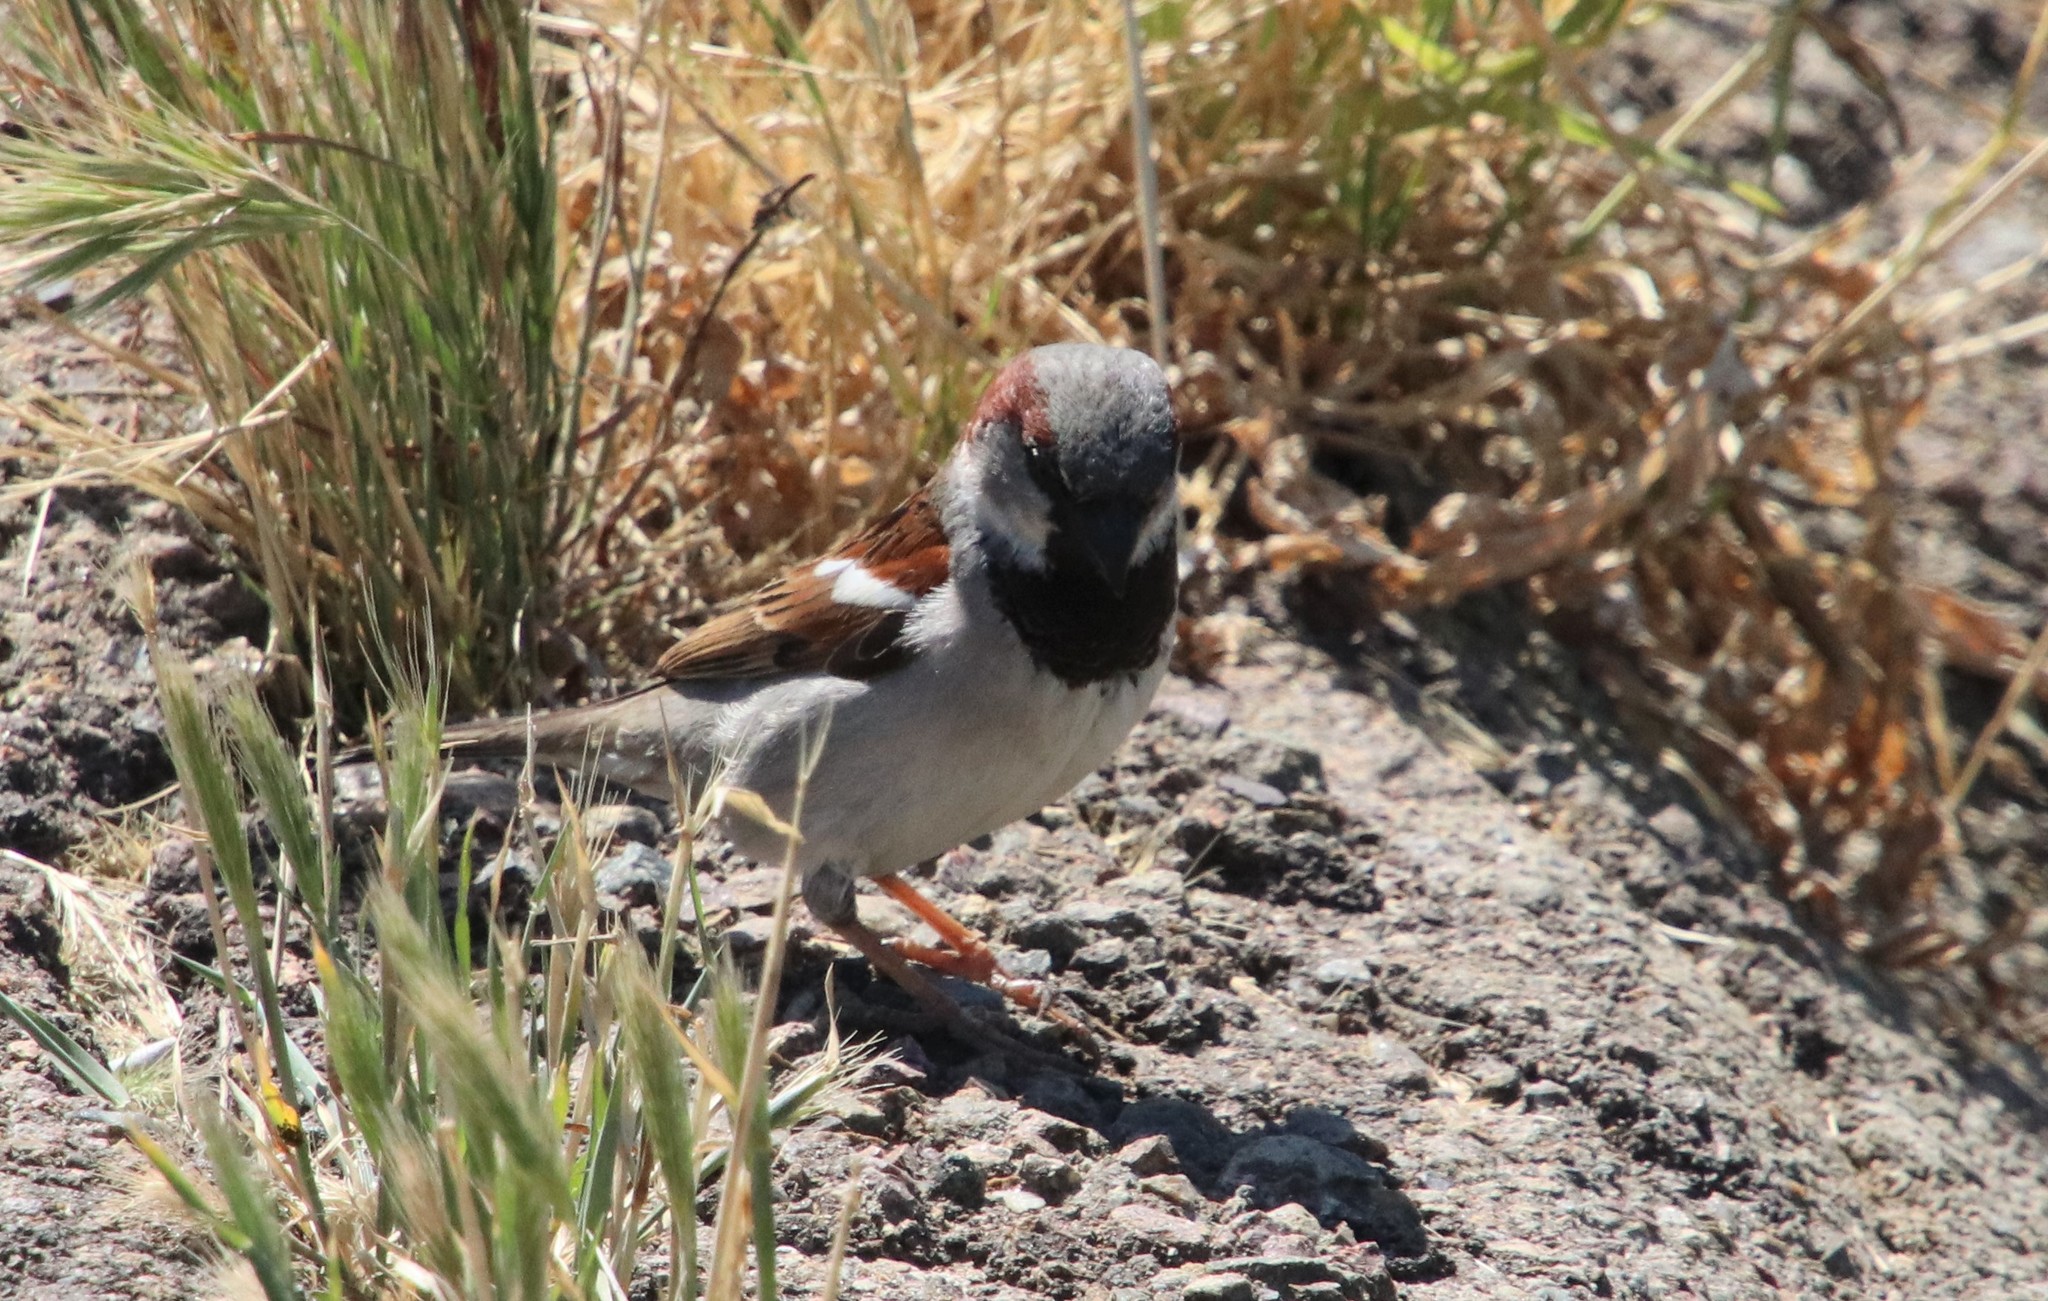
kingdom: Animalia
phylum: Chordata
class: Aves
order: Passeriformes
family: Passeridae
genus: Passer
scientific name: Passer domesticus
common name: House sparrow
